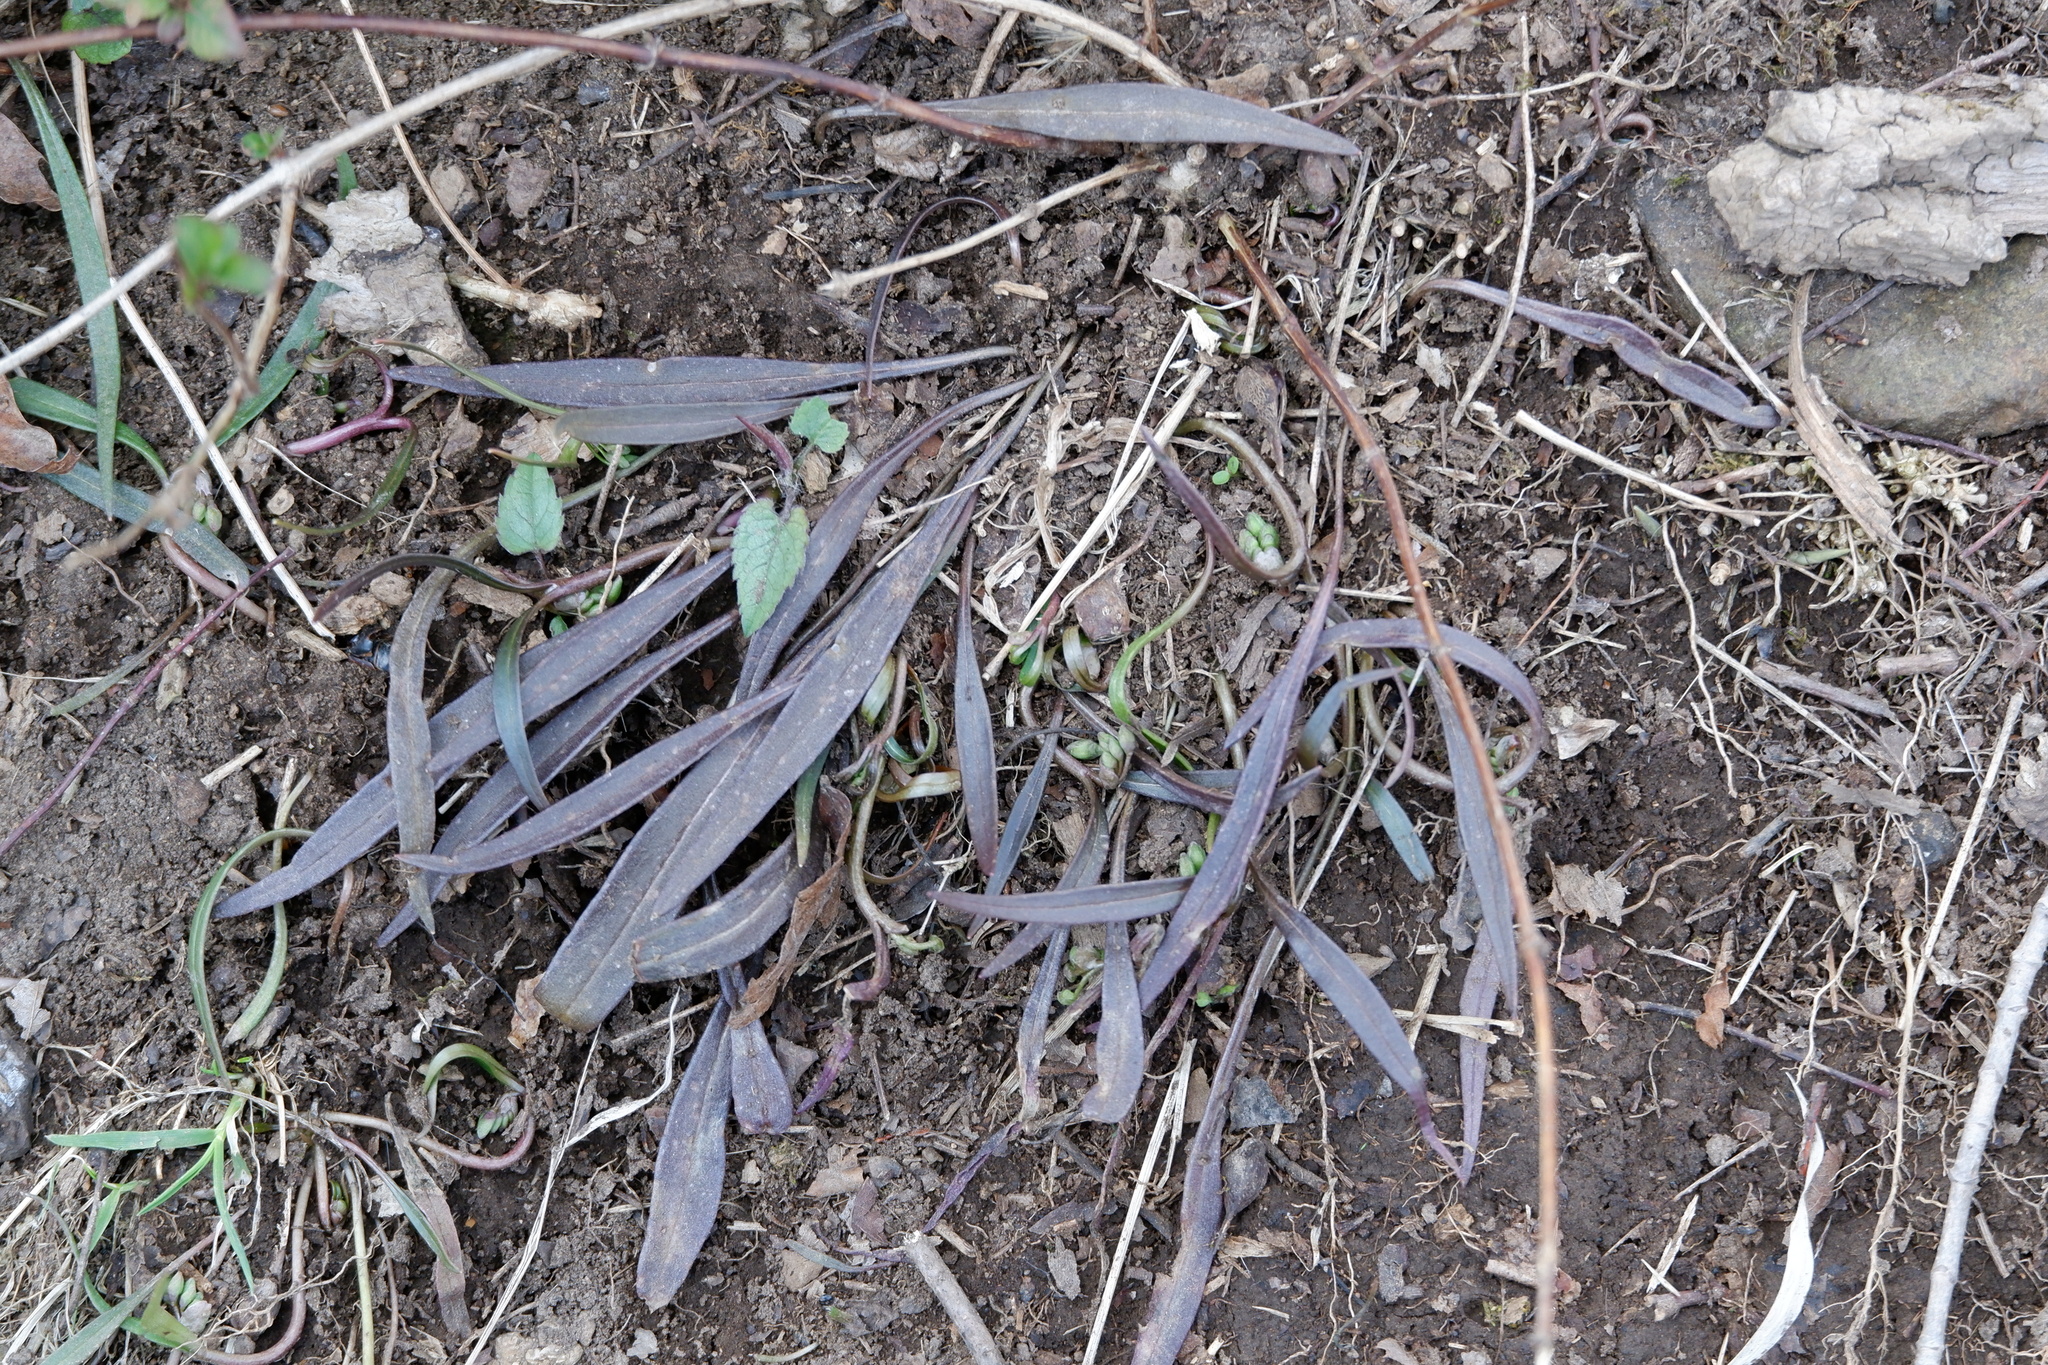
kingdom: Plantae
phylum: Tracheophyta
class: Magnoliopsida
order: Caryophyllales
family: Montiaceae
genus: Claytonia
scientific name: Claytonia virginica
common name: Virginia springbeauty
